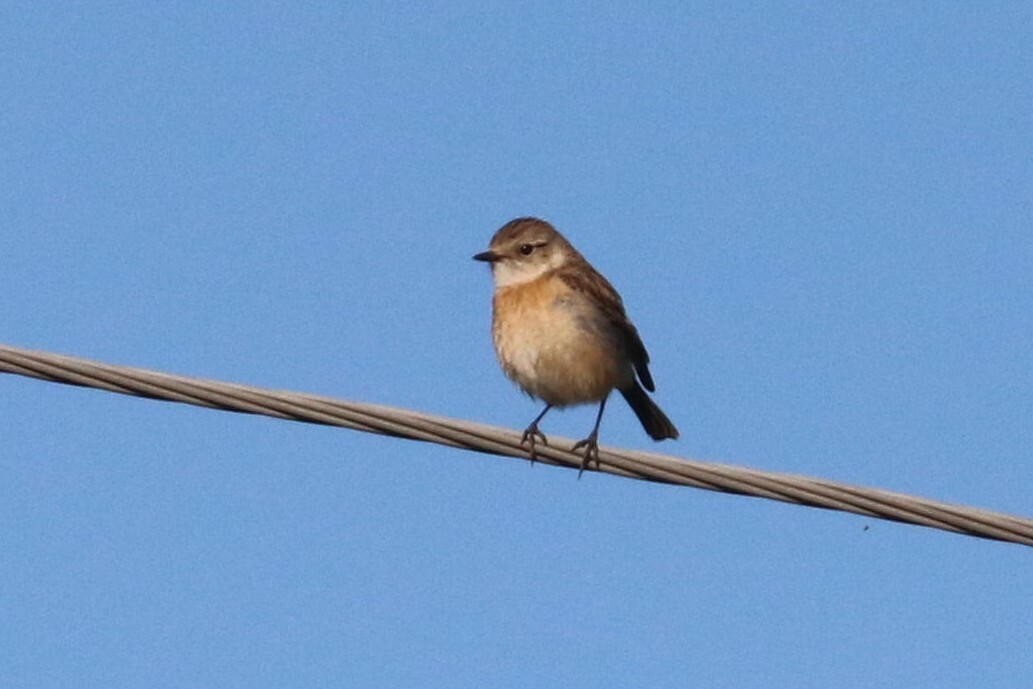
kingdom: Animalia
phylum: Chordata
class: Aves
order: Passeriformes
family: Muscicapidae
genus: Saxicola
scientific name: Saxicola maurus
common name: Siberian stonechat
